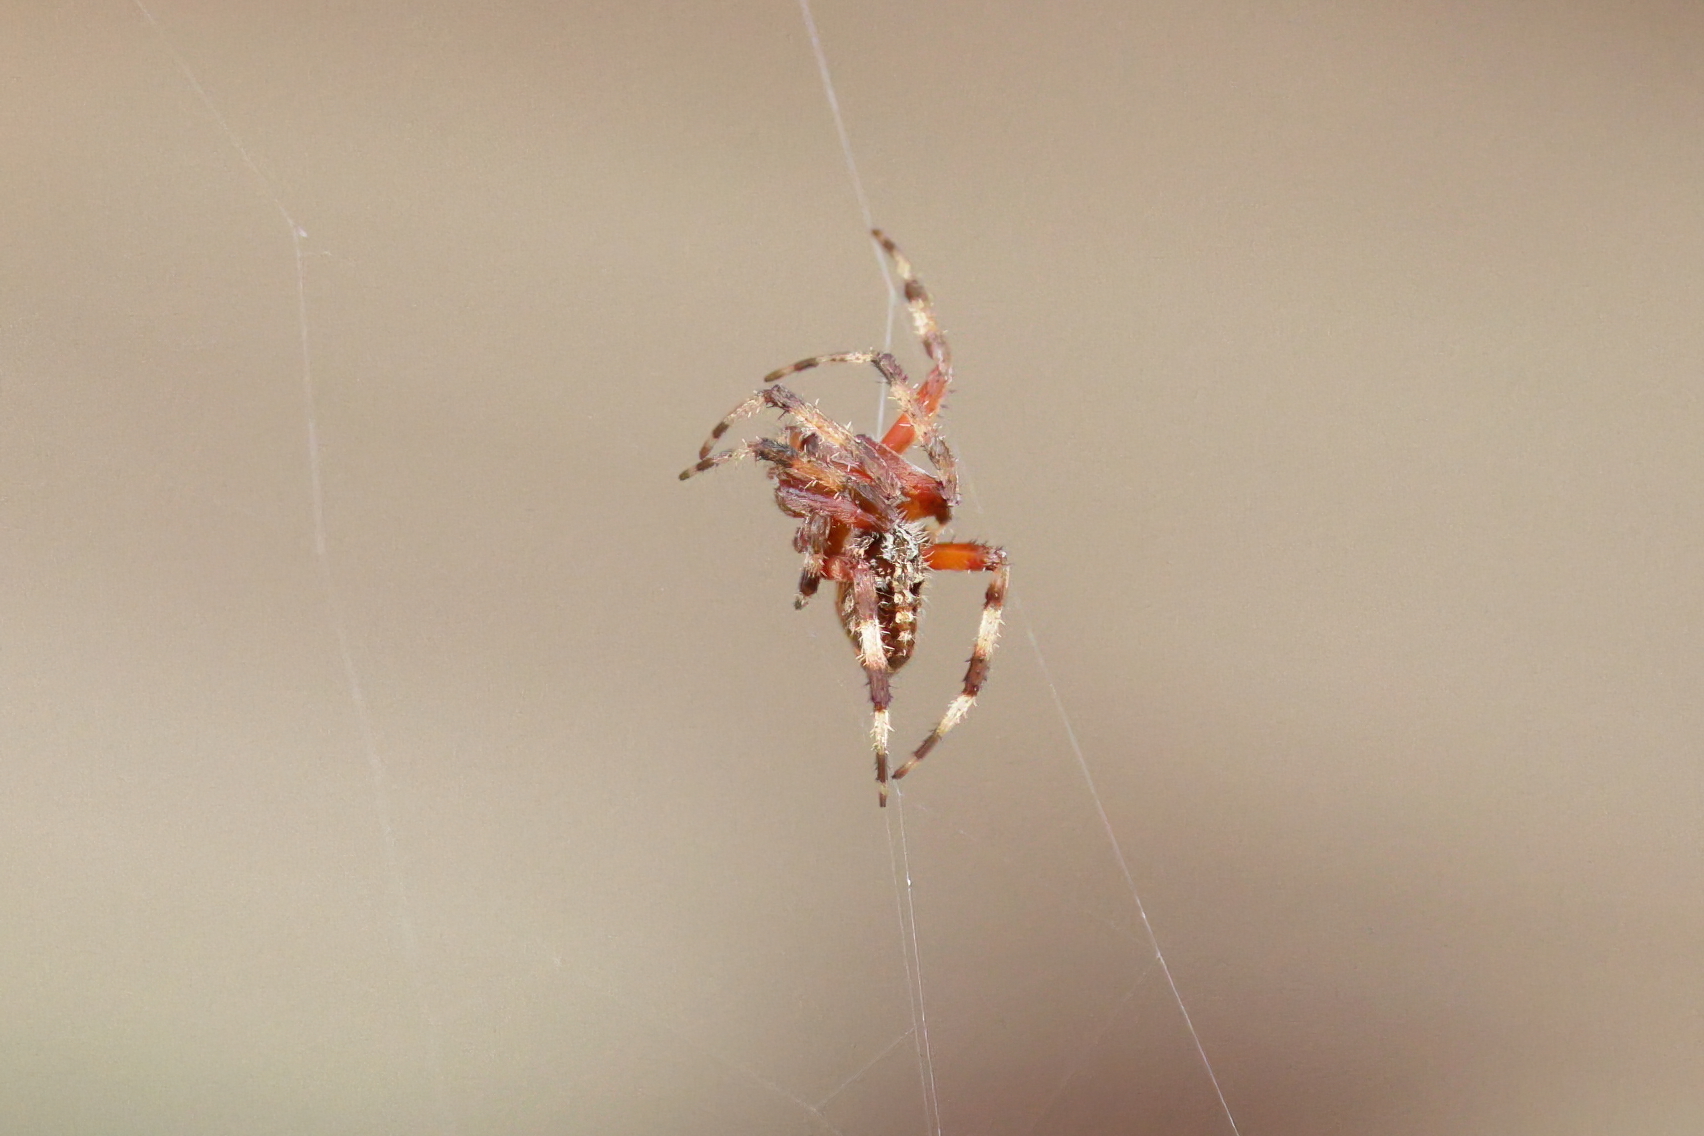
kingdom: Animalia
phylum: Arthropoda
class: Arachnida
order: Araneae
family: Araneidae
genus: Neoscona
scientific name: Neoscona domiciliorum
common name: Red-femured spotted orbweaver
